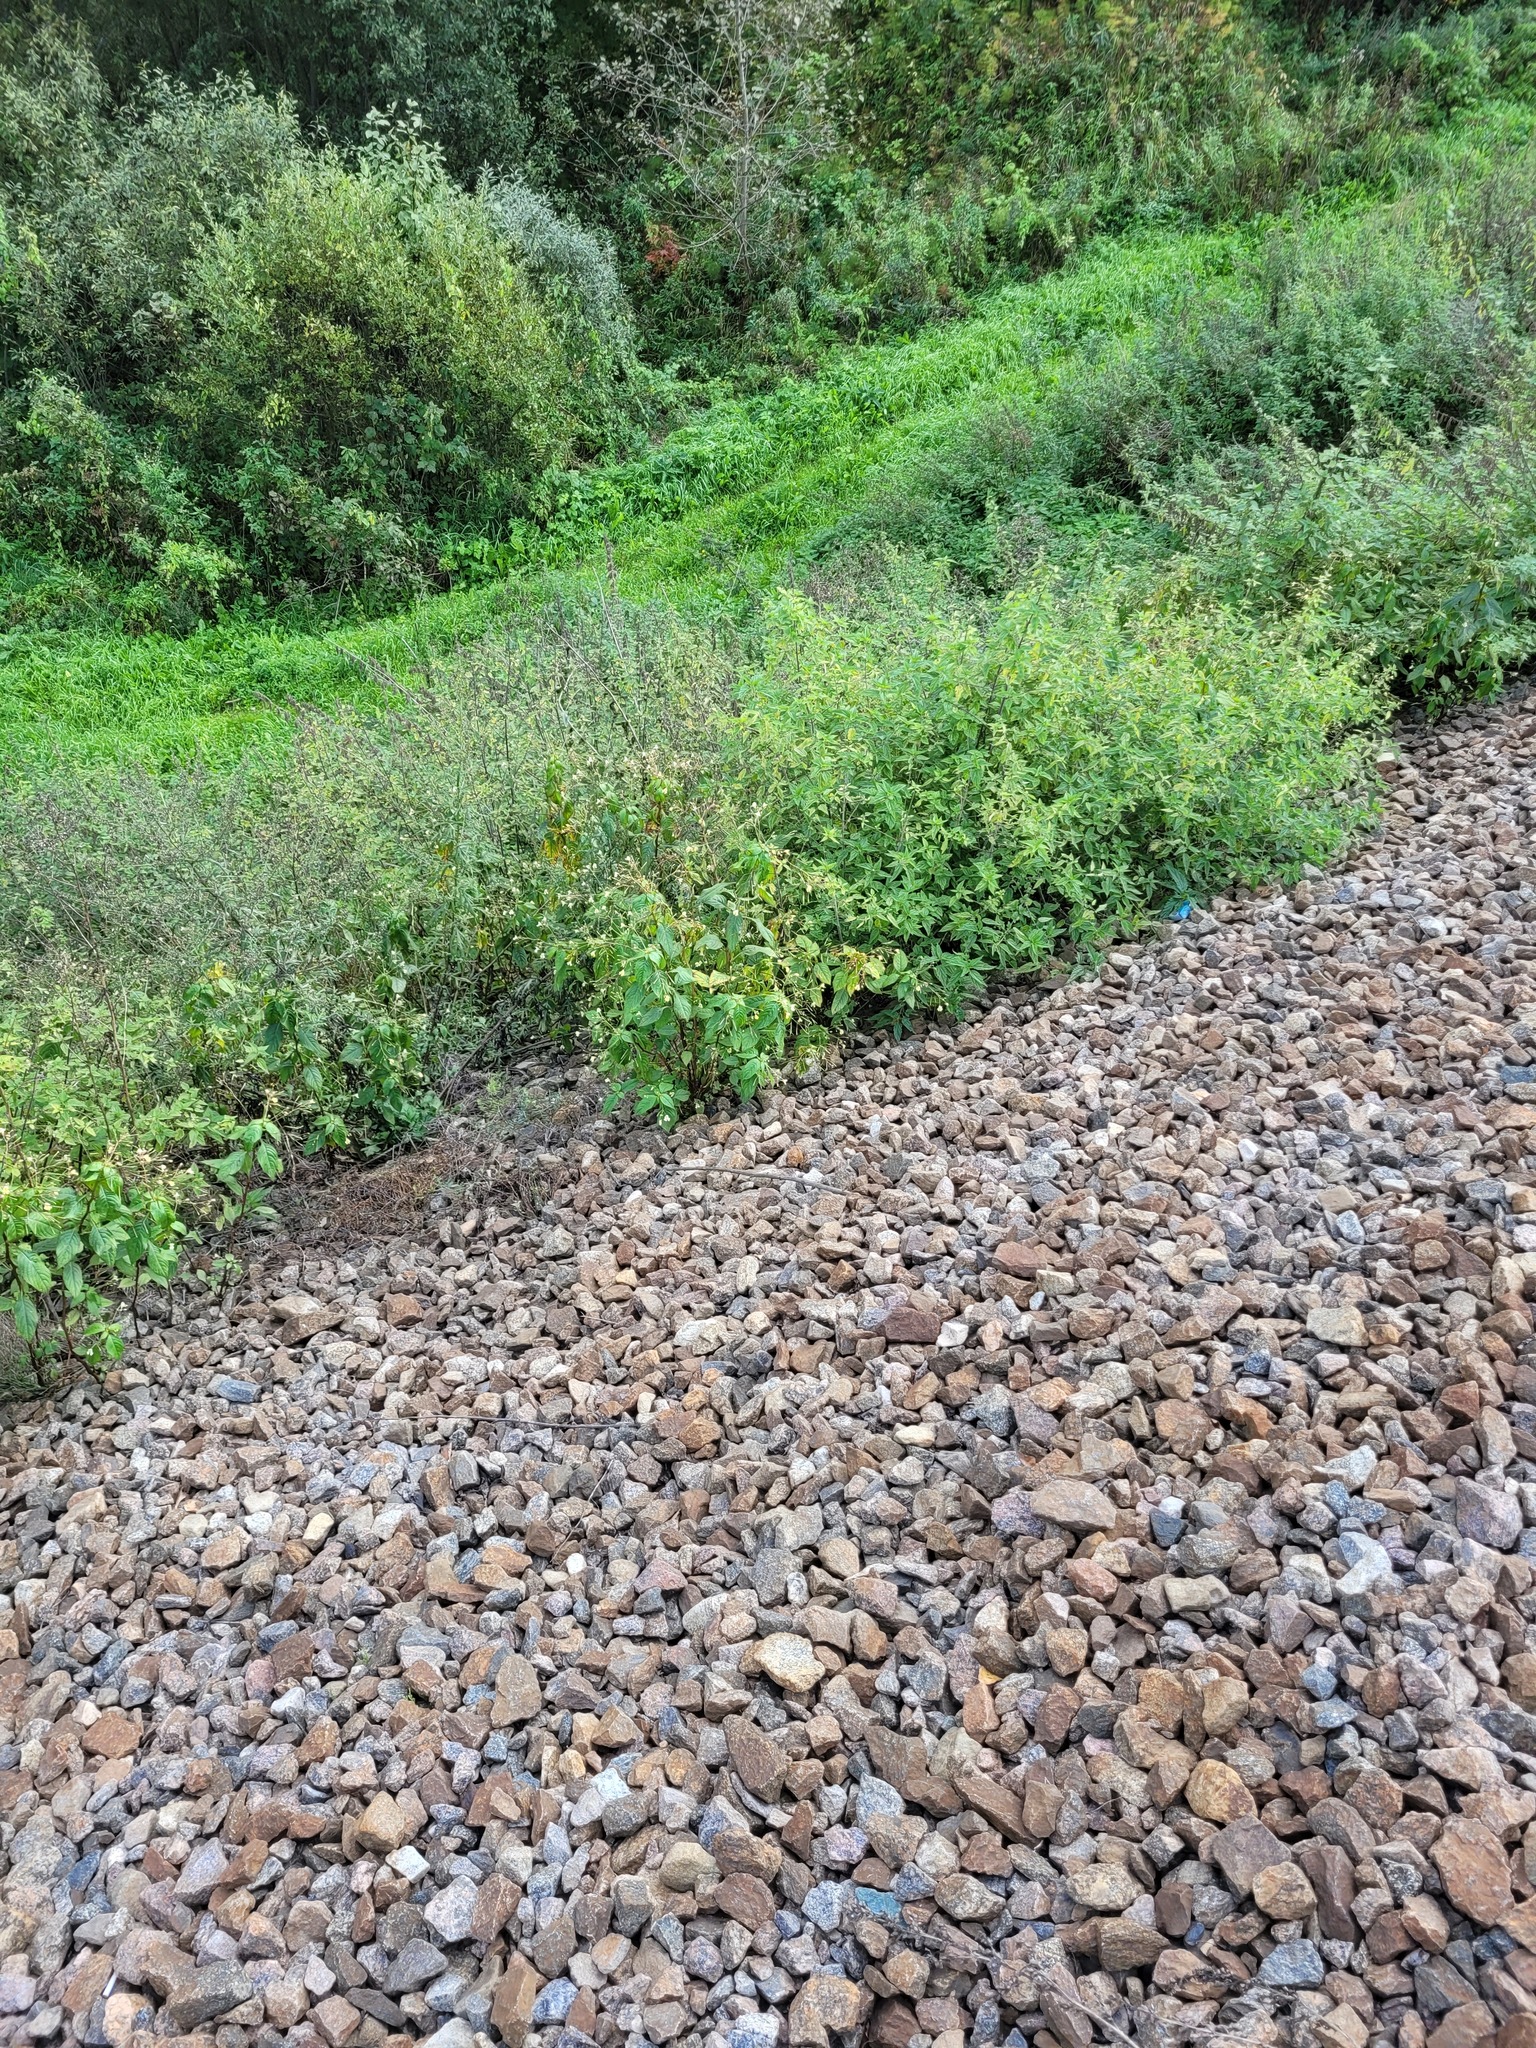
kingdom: Plantae
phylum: Tracheophyta
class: Magnoliopsida
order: Ericales
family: Balsaminaceae
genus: Impatiens
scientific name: Impatiens parviflora
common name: Small balsam
